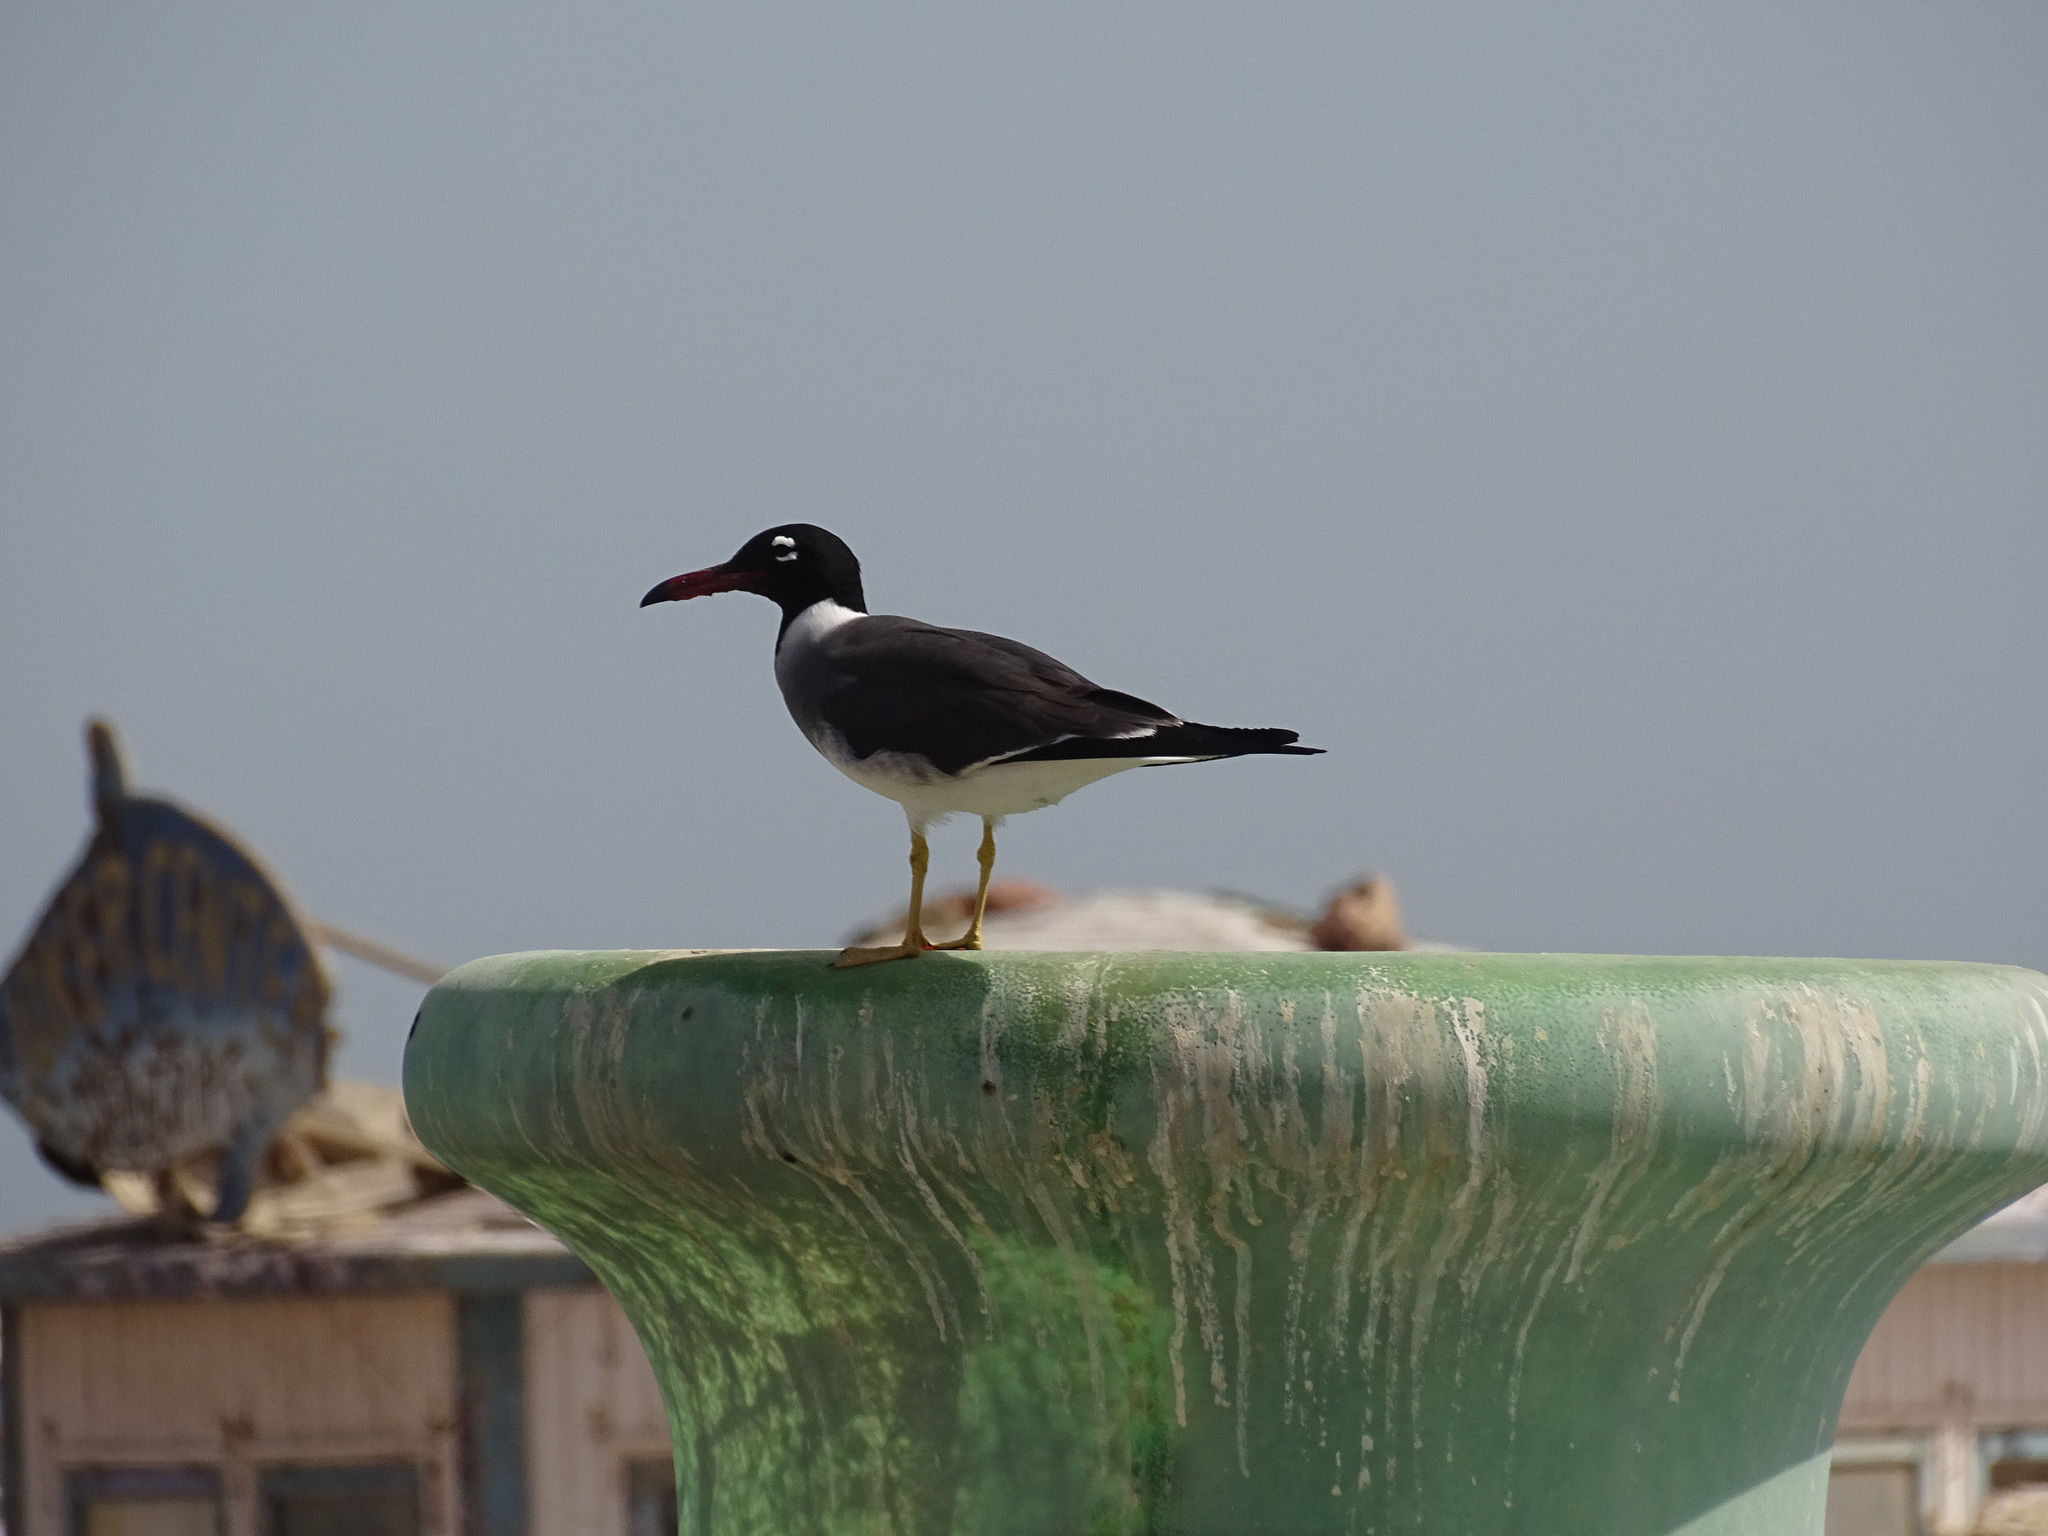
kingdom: Animalia
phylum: Chordata
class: Aves
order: Charadriiformes
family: Laridae
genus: Ichthyaetus
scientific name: Ichthyaetus leucophthalmus
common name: White-eyed gull
